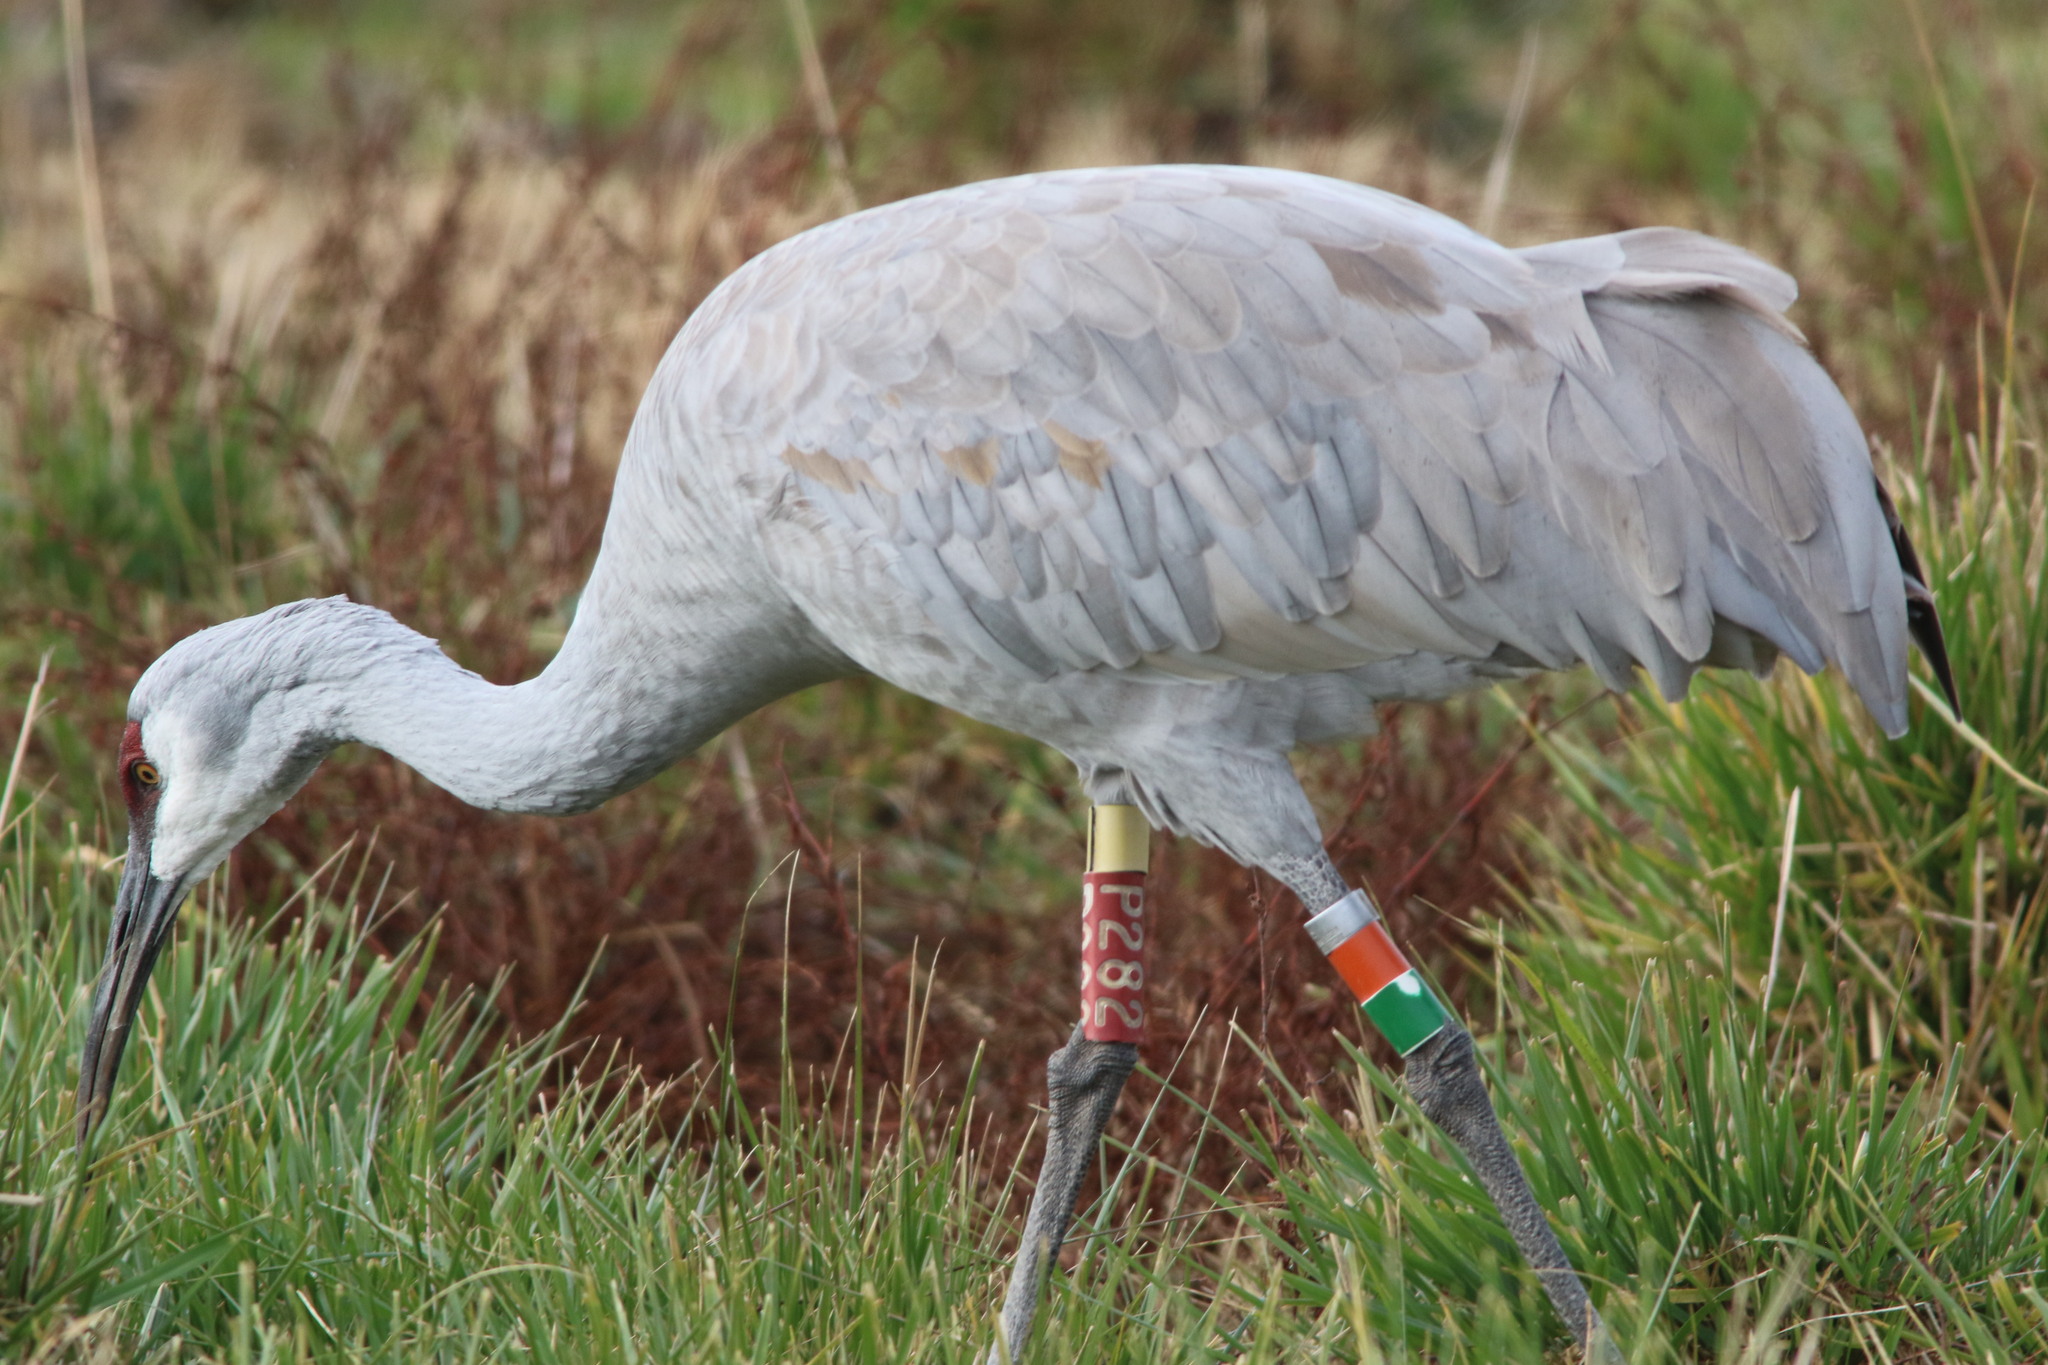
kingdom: Animalia
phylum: Chordata
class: Aves
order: Gruiformes
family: Gruidae
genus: Grus
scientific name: Grus canadensis
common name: Sandhill crane
